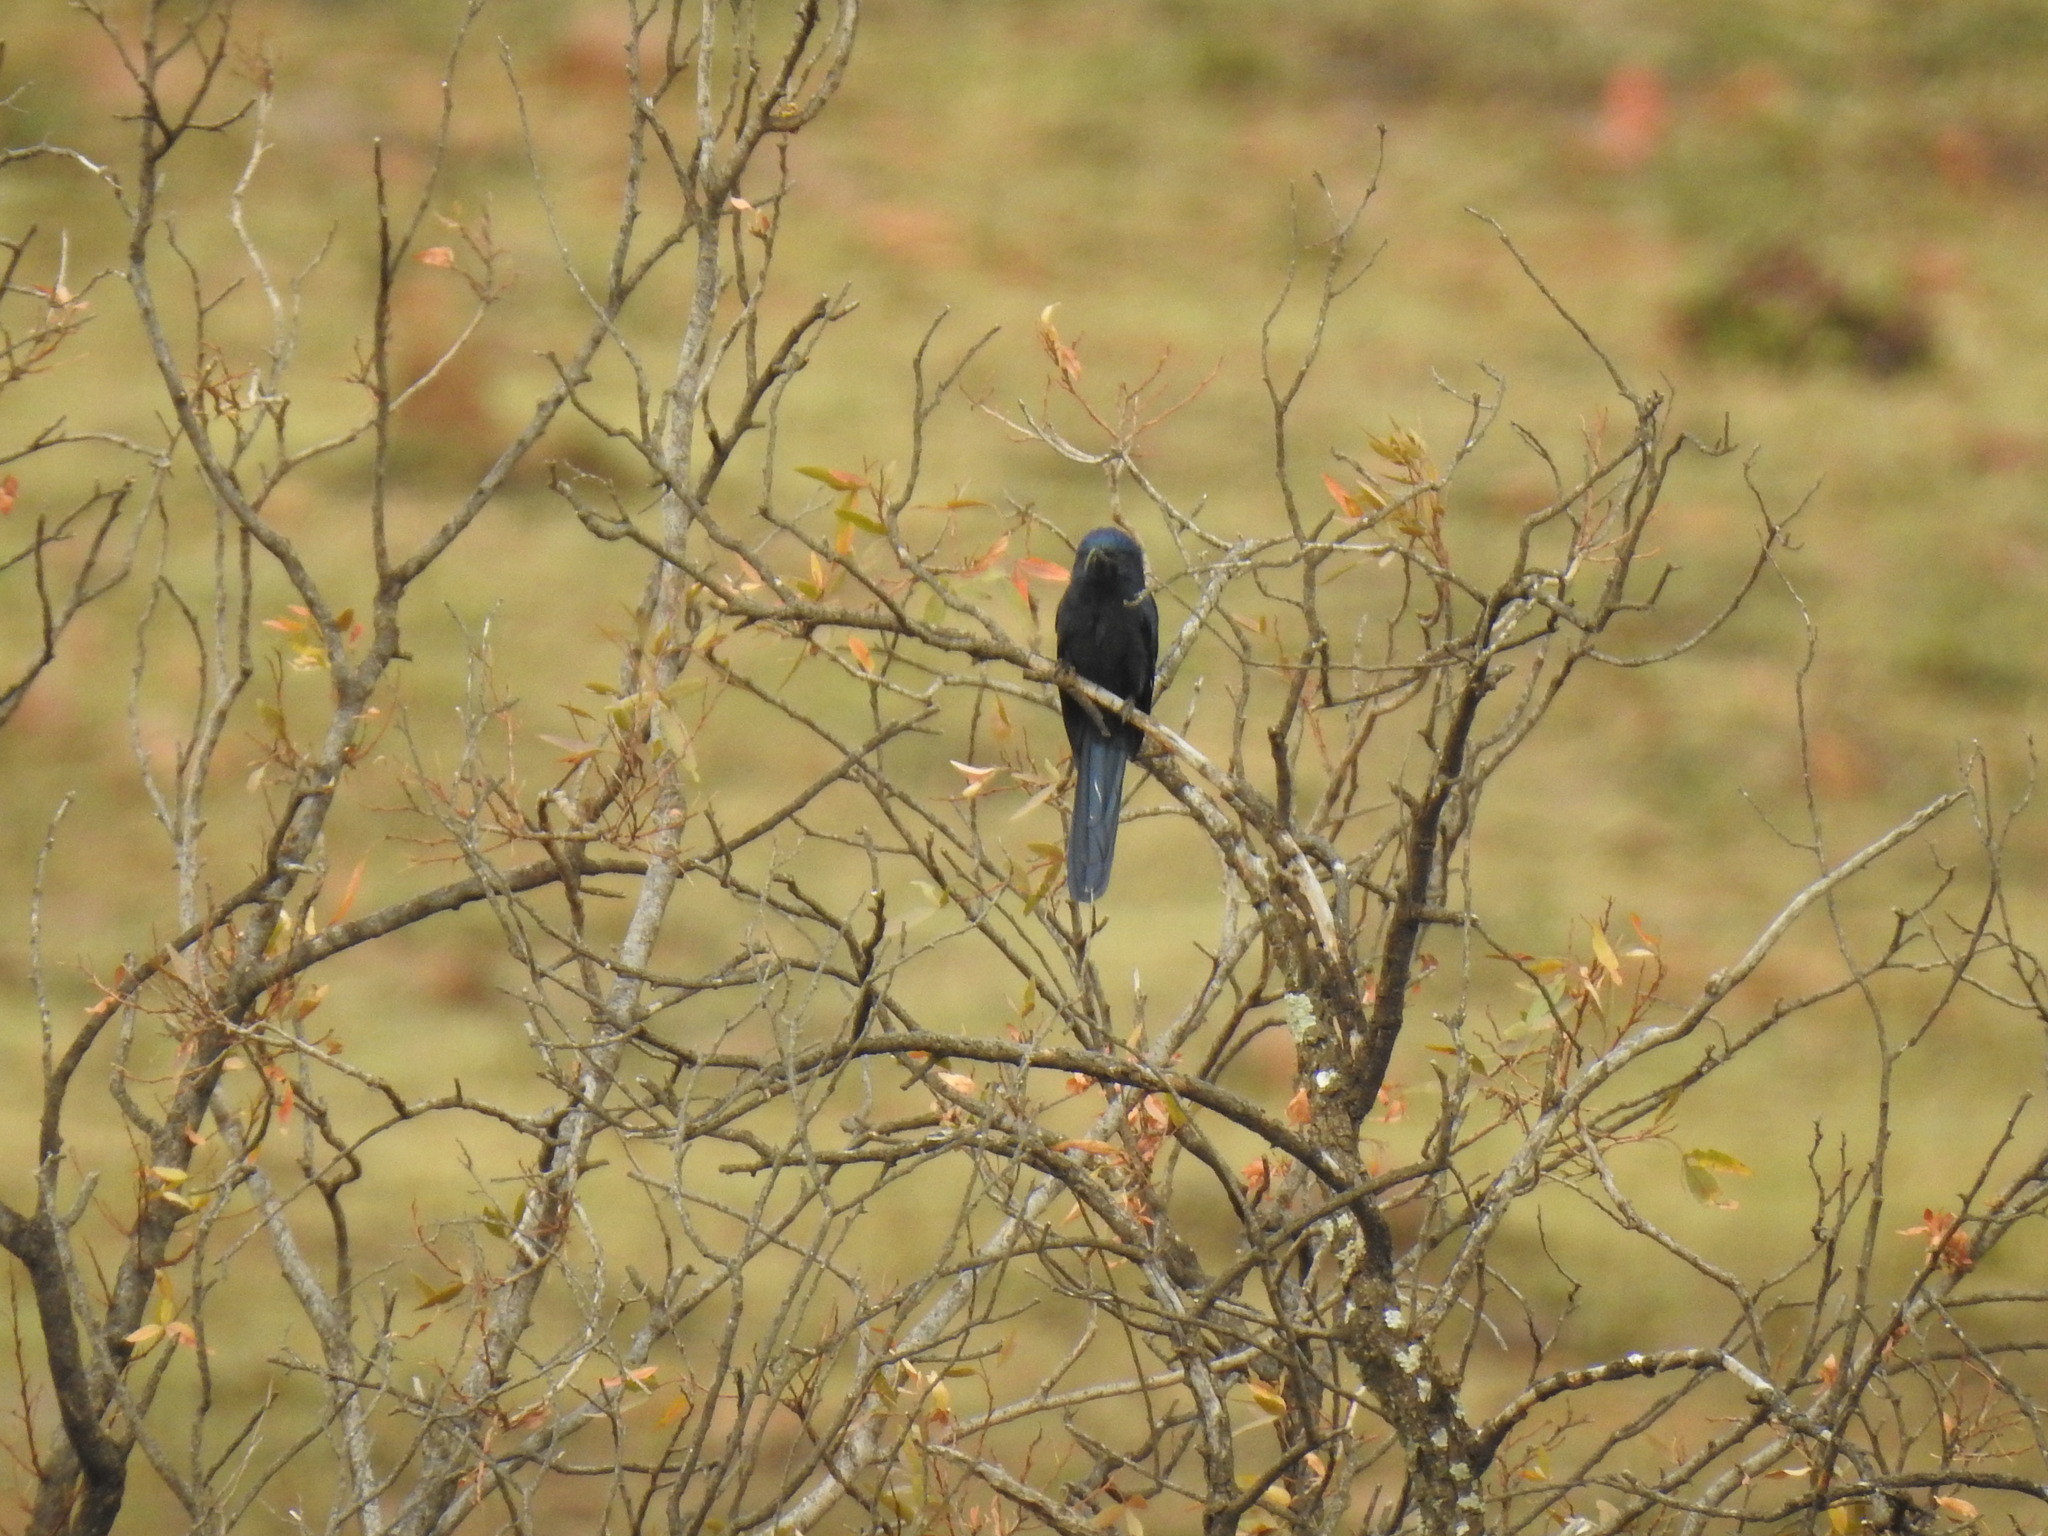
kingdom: Animalia
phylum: Chordata
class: Aves
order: Bucerotiformes
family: Phoeniculidae
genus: Rhinopomastus
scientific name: Rhinopomastus cyanomelas
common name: Common scimitarbill
